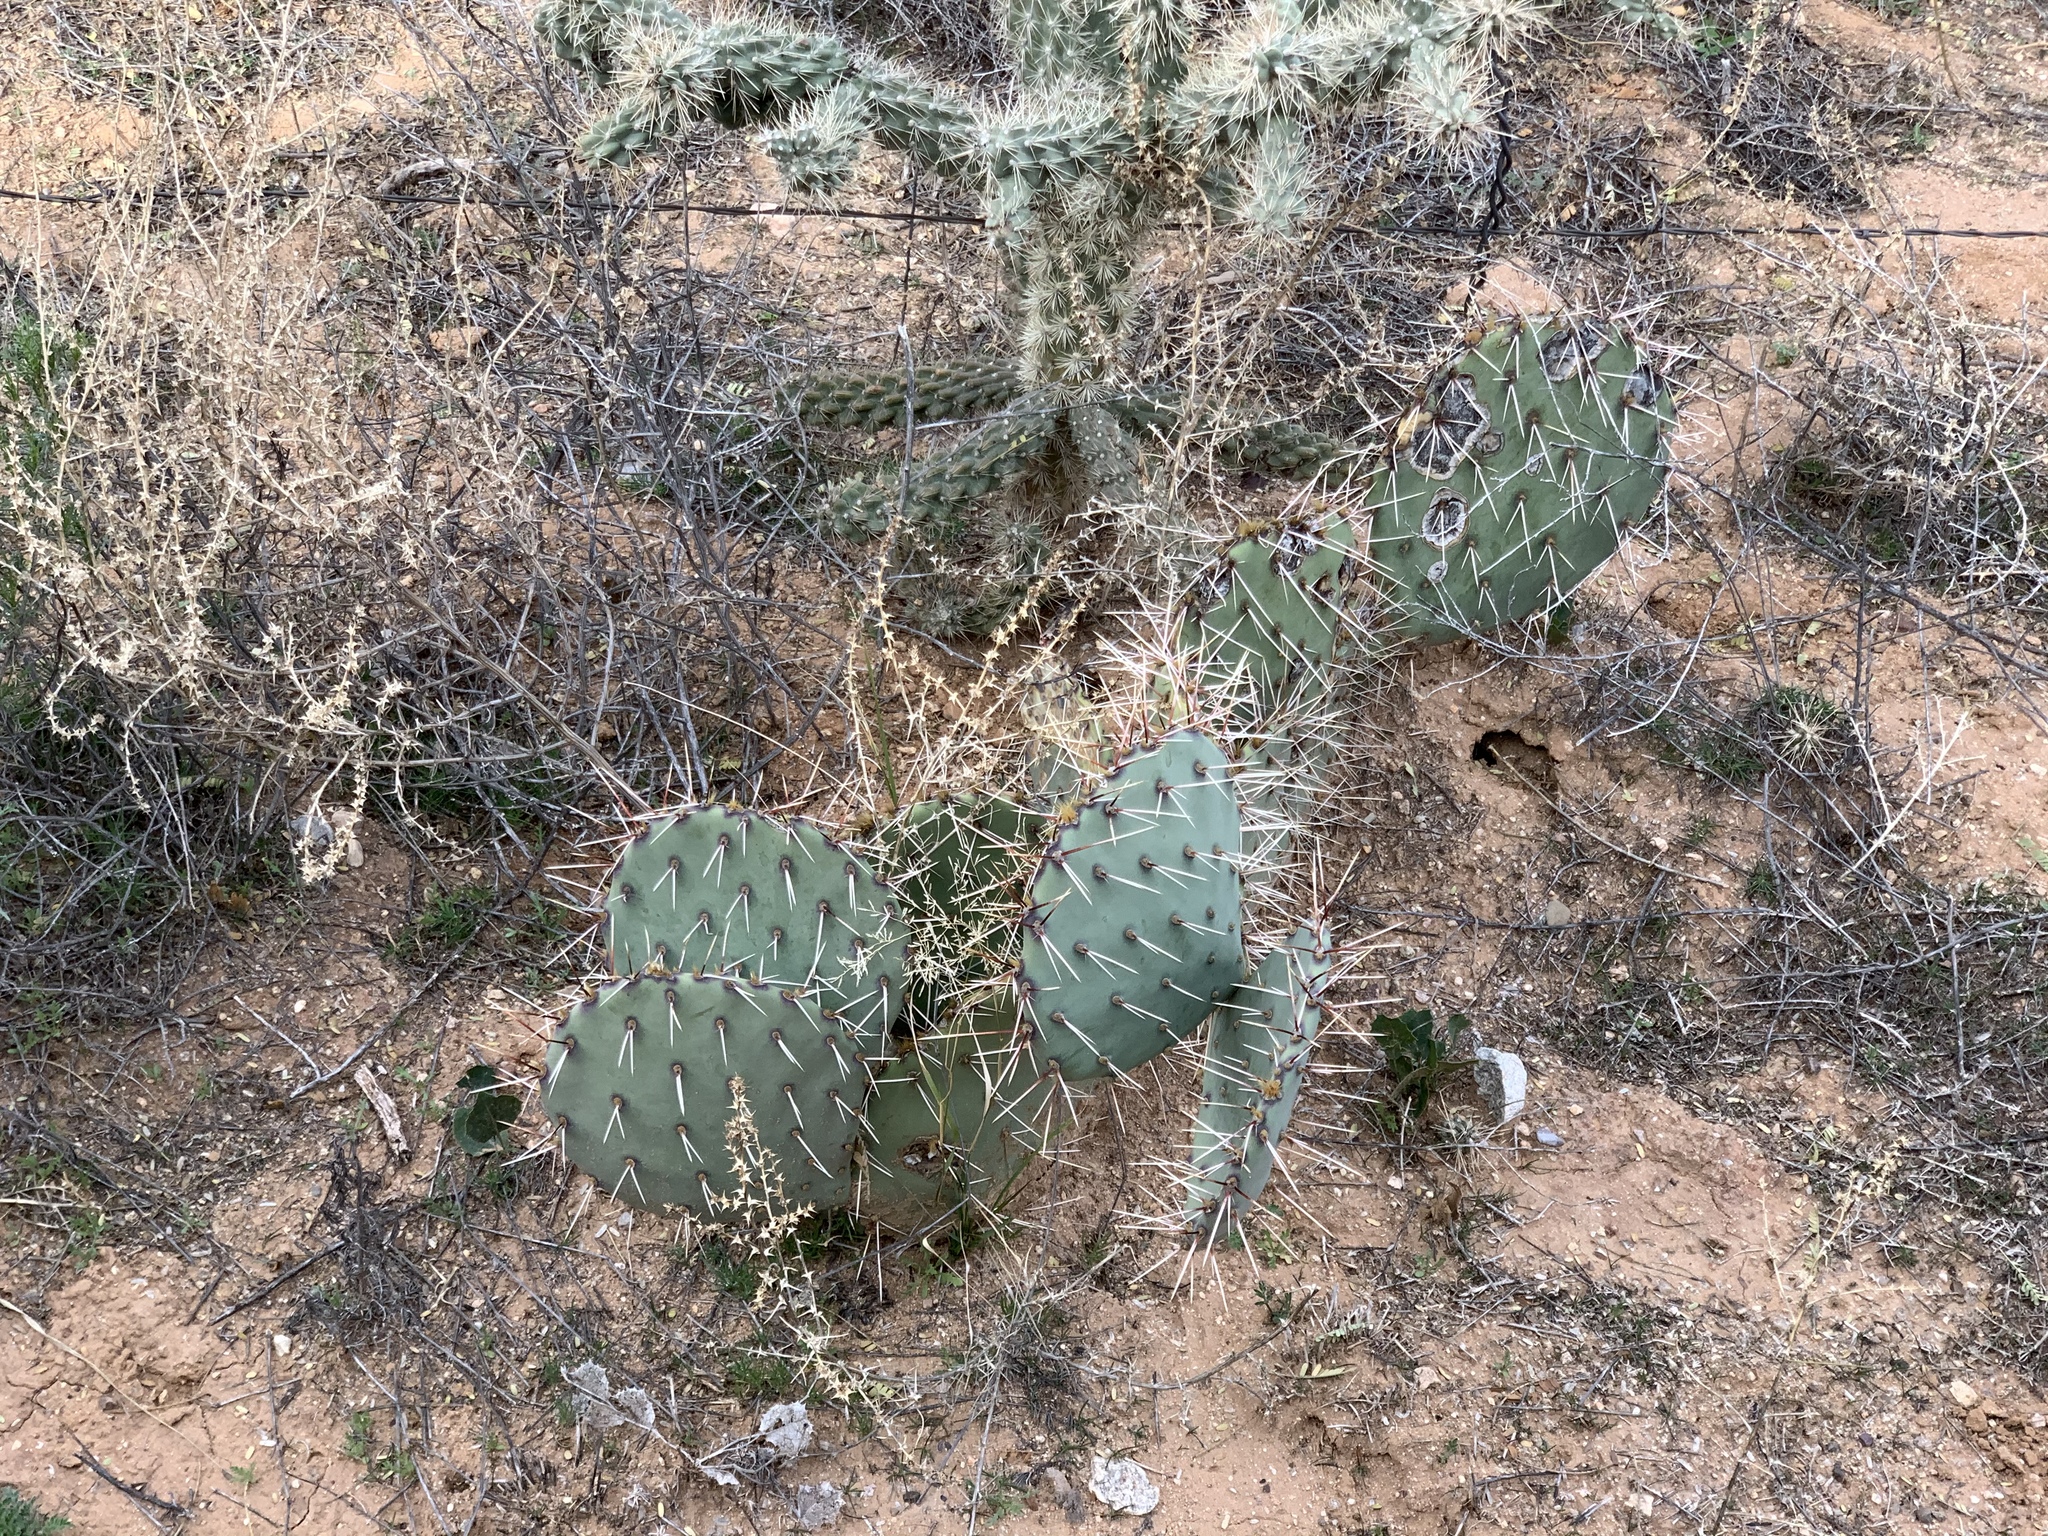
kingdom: Plantae
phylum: Tracheophyta
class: Magnoliopsida
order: Caryophyllales
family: Cactaceae
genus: Opuntia
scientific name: Opuntia phaeacantha
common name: New mexico prickly-pear
